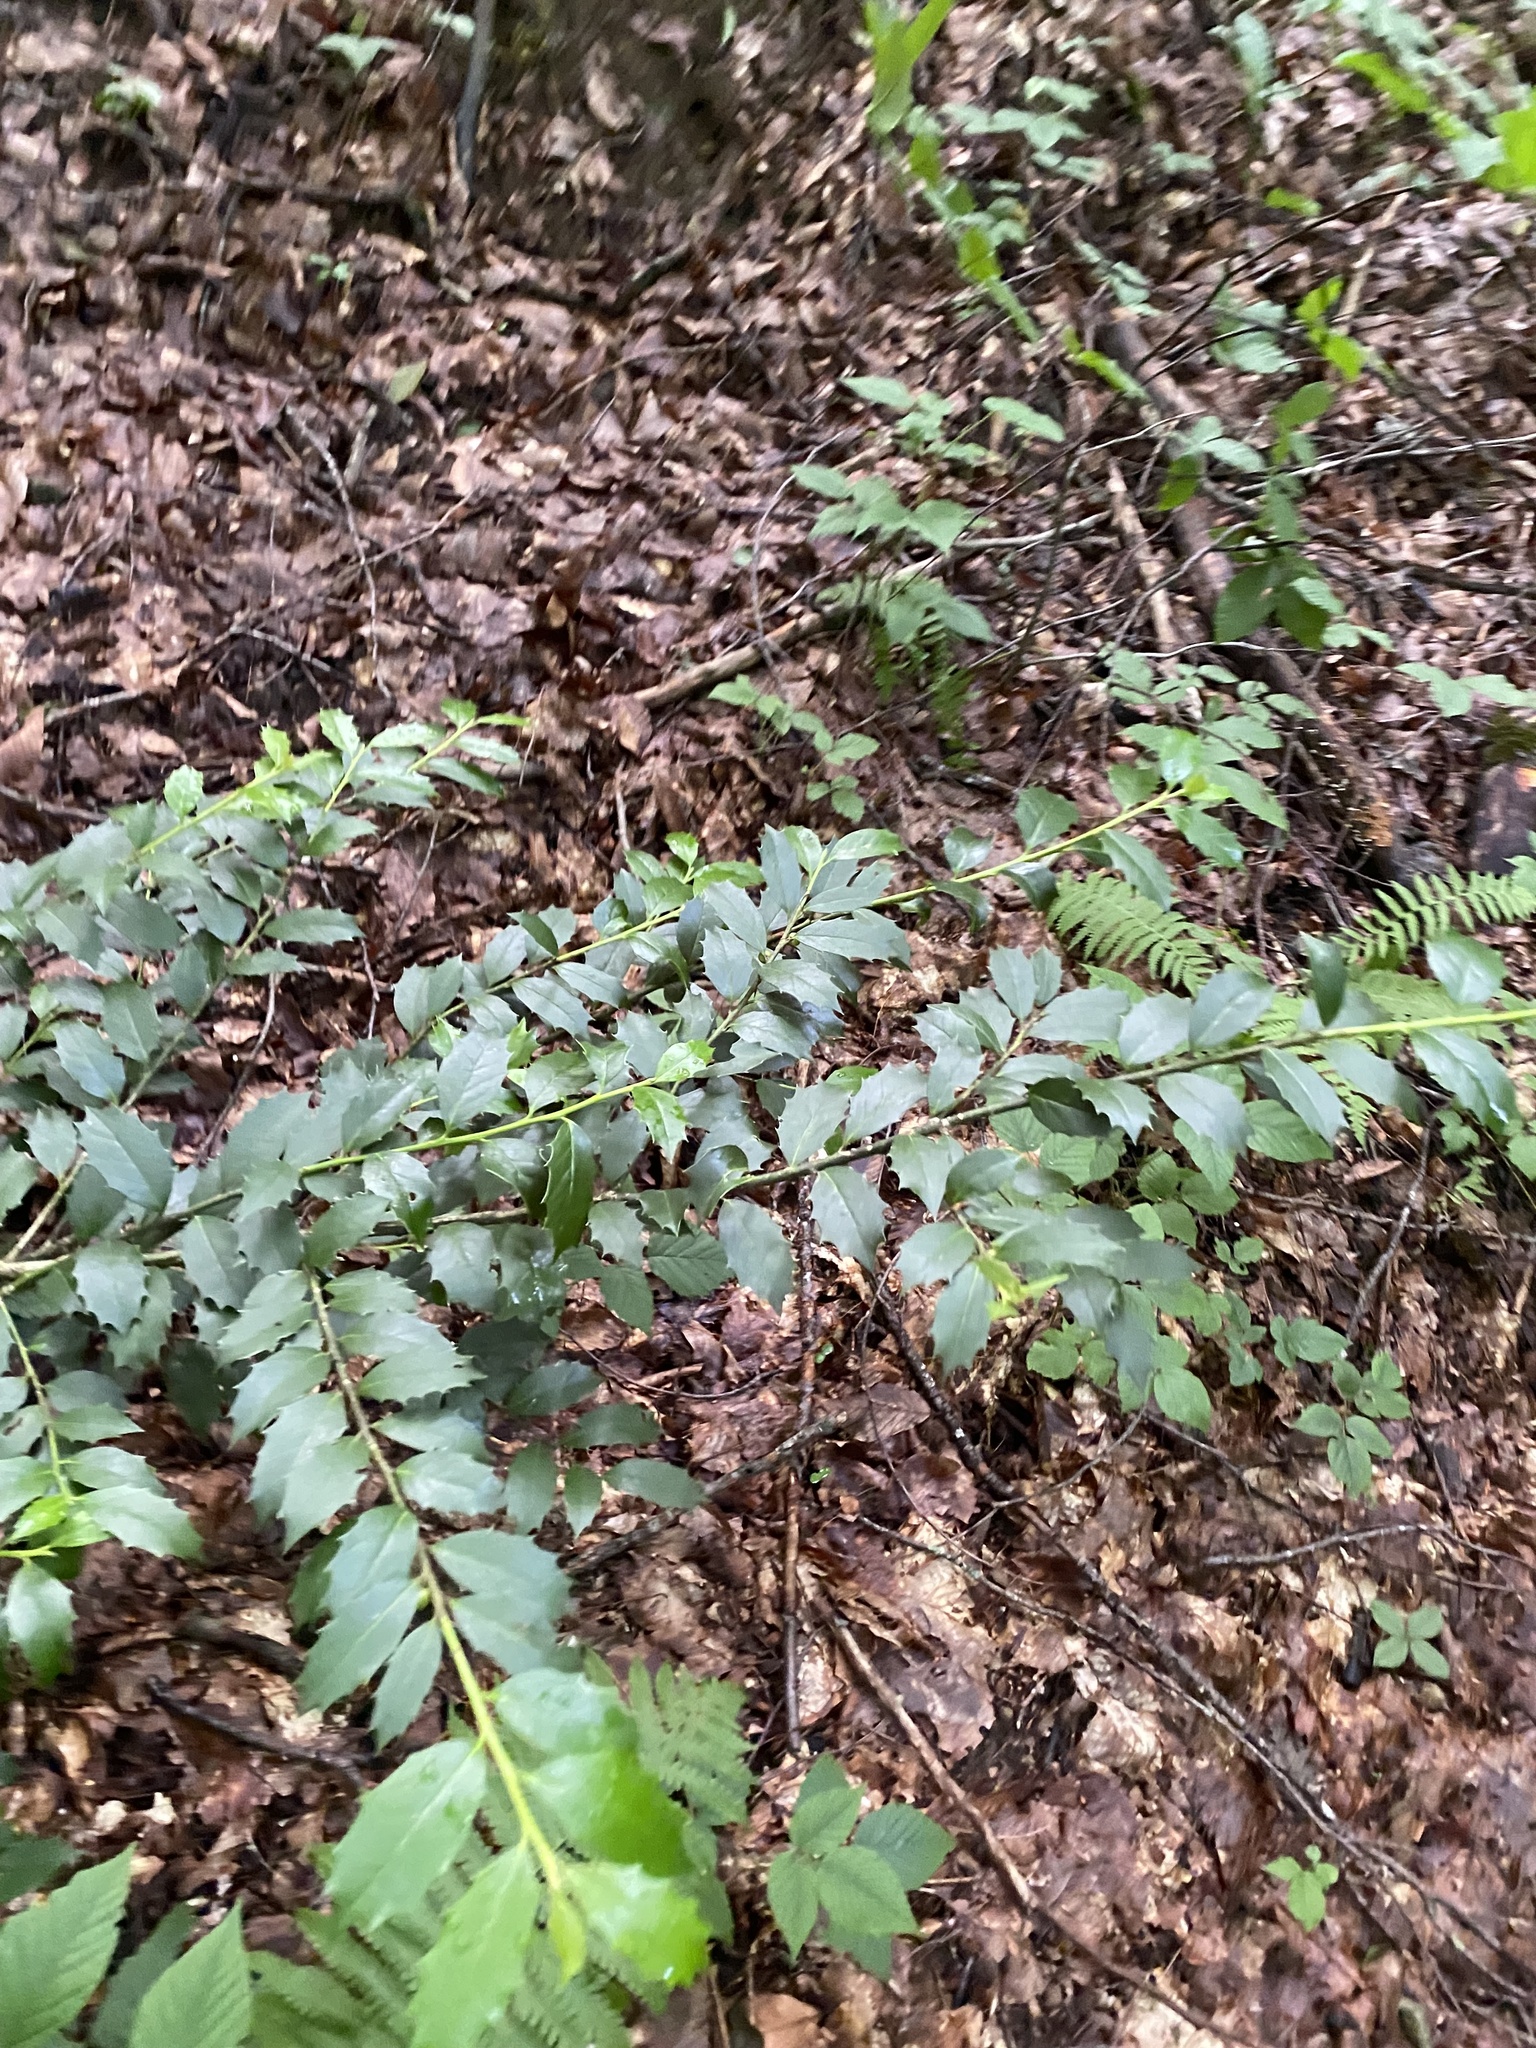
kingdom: Plantae
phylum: Tracheophyta
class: Magnoliopsida
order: Aquifoliales
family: Aquifoliaceae
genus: Ilex
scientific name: Ilex colchica
